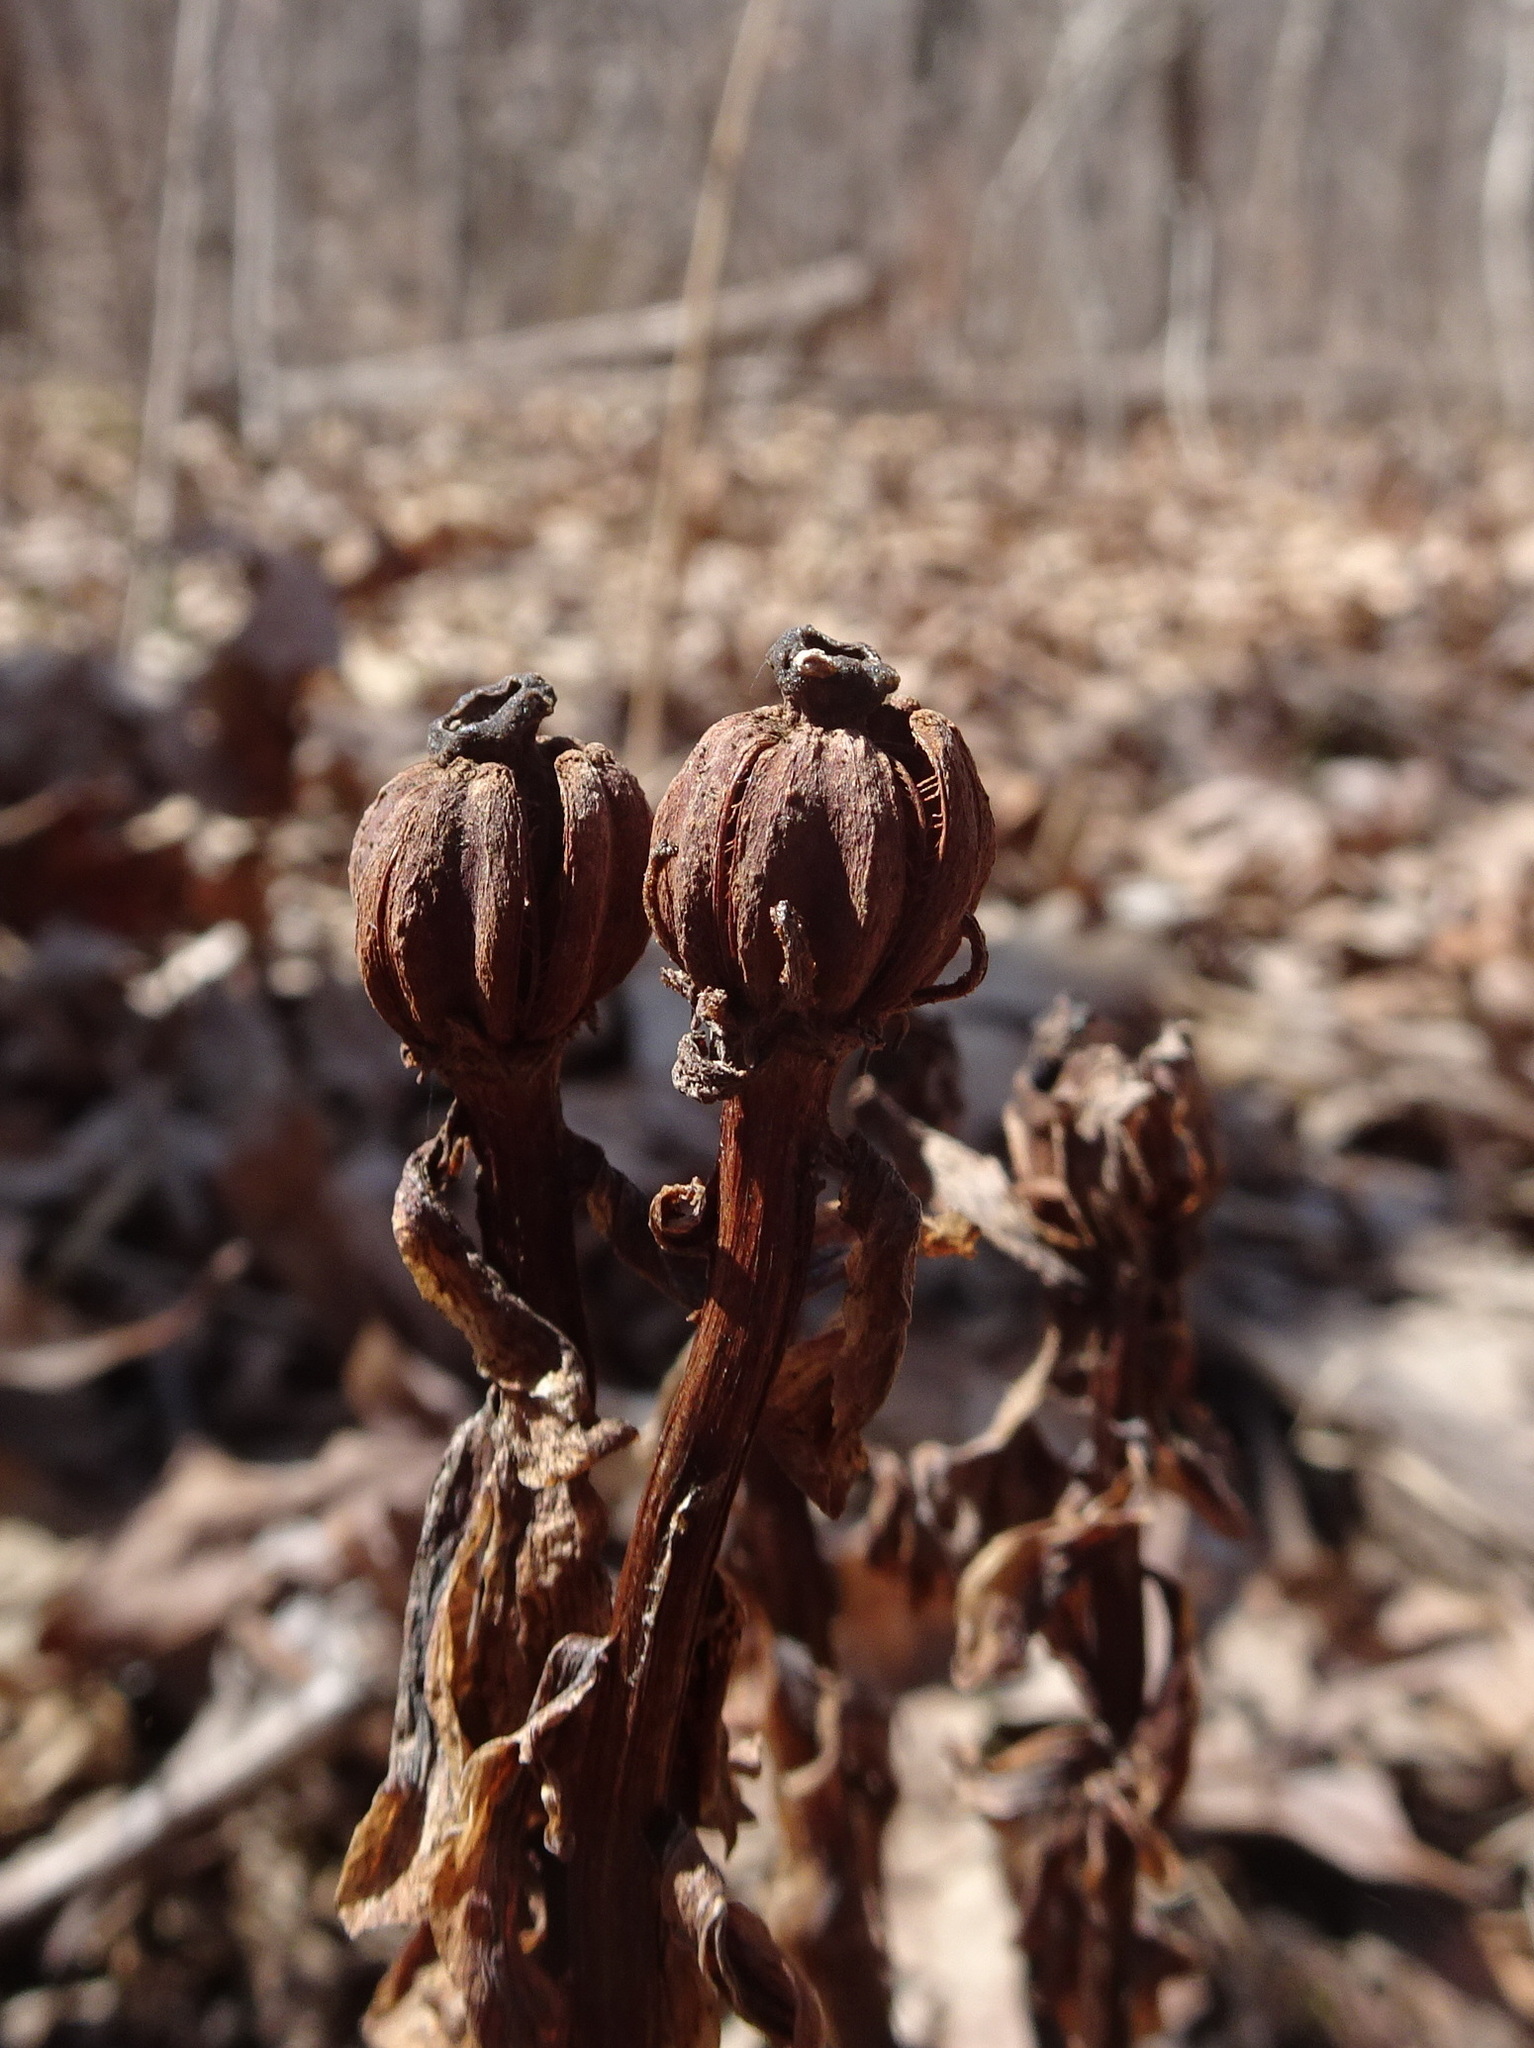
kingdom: Plantae
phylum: Tracheophyta
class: Magnoliopsida
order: Ericales
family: Ericaceae
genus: Monotropa
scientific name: Monotropa uniflora
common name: Convulsion root
